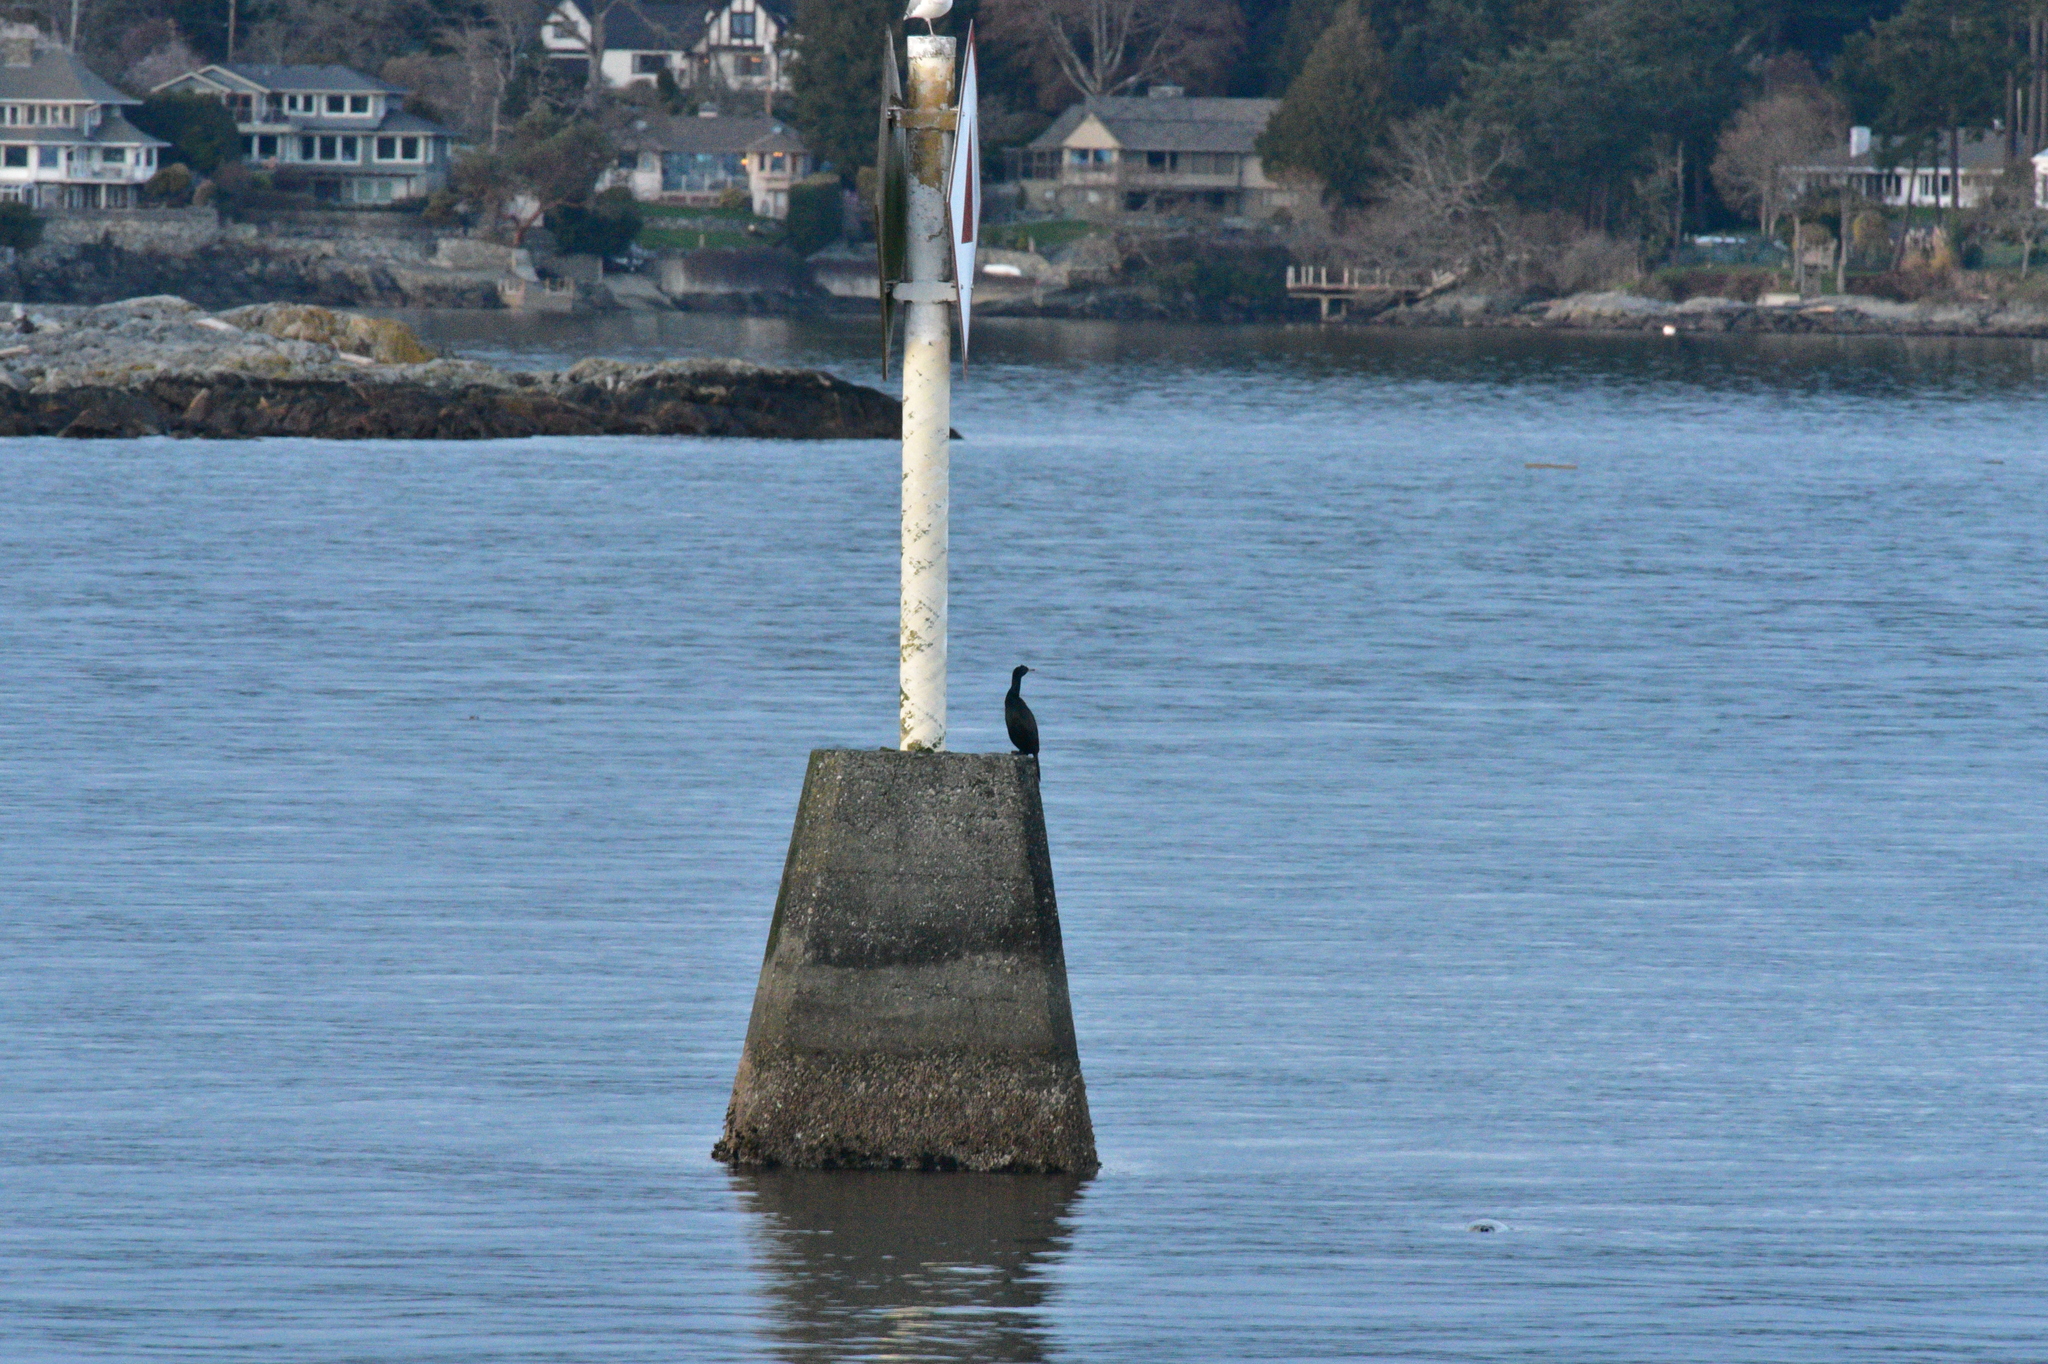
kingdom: Animalia
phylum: Chordata
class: Aves
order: Suliformes
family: Phalacrocoracidae
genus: Phalacrocorax
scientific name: Phalacrocorax pelagicus
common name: Pelagic cormorant
